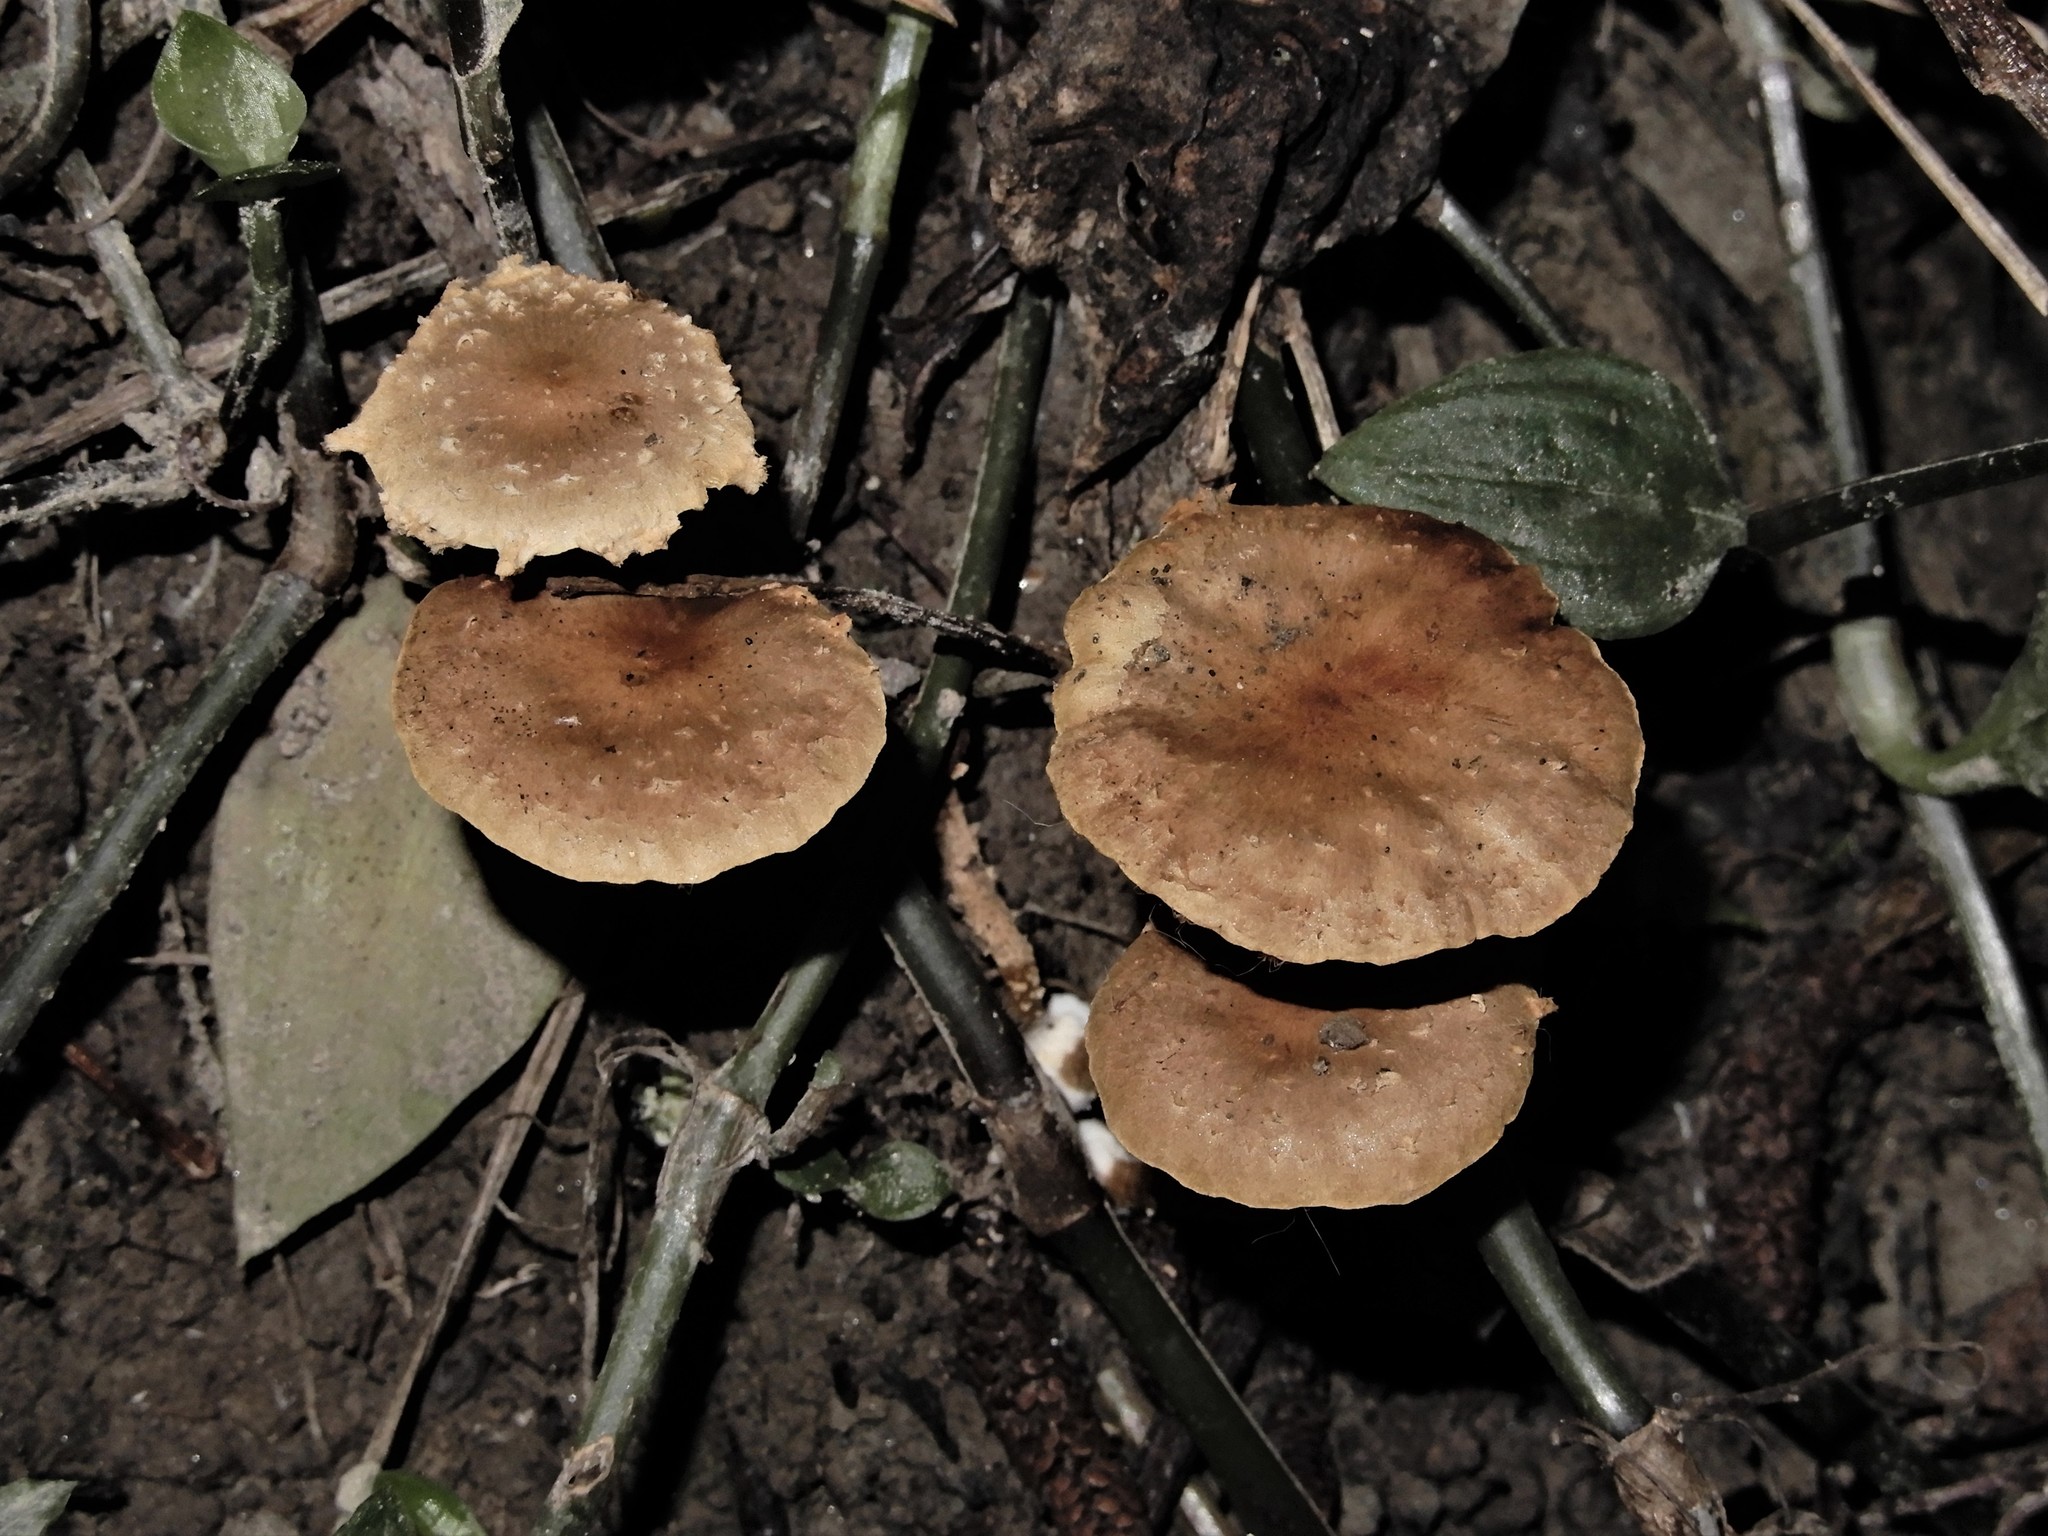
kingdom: Fungi
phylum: Basidiomycota
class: Agaricomycetes
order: Agaricales
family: Strophariaceae
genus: Pholiota
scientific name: Pholiota subflammans
